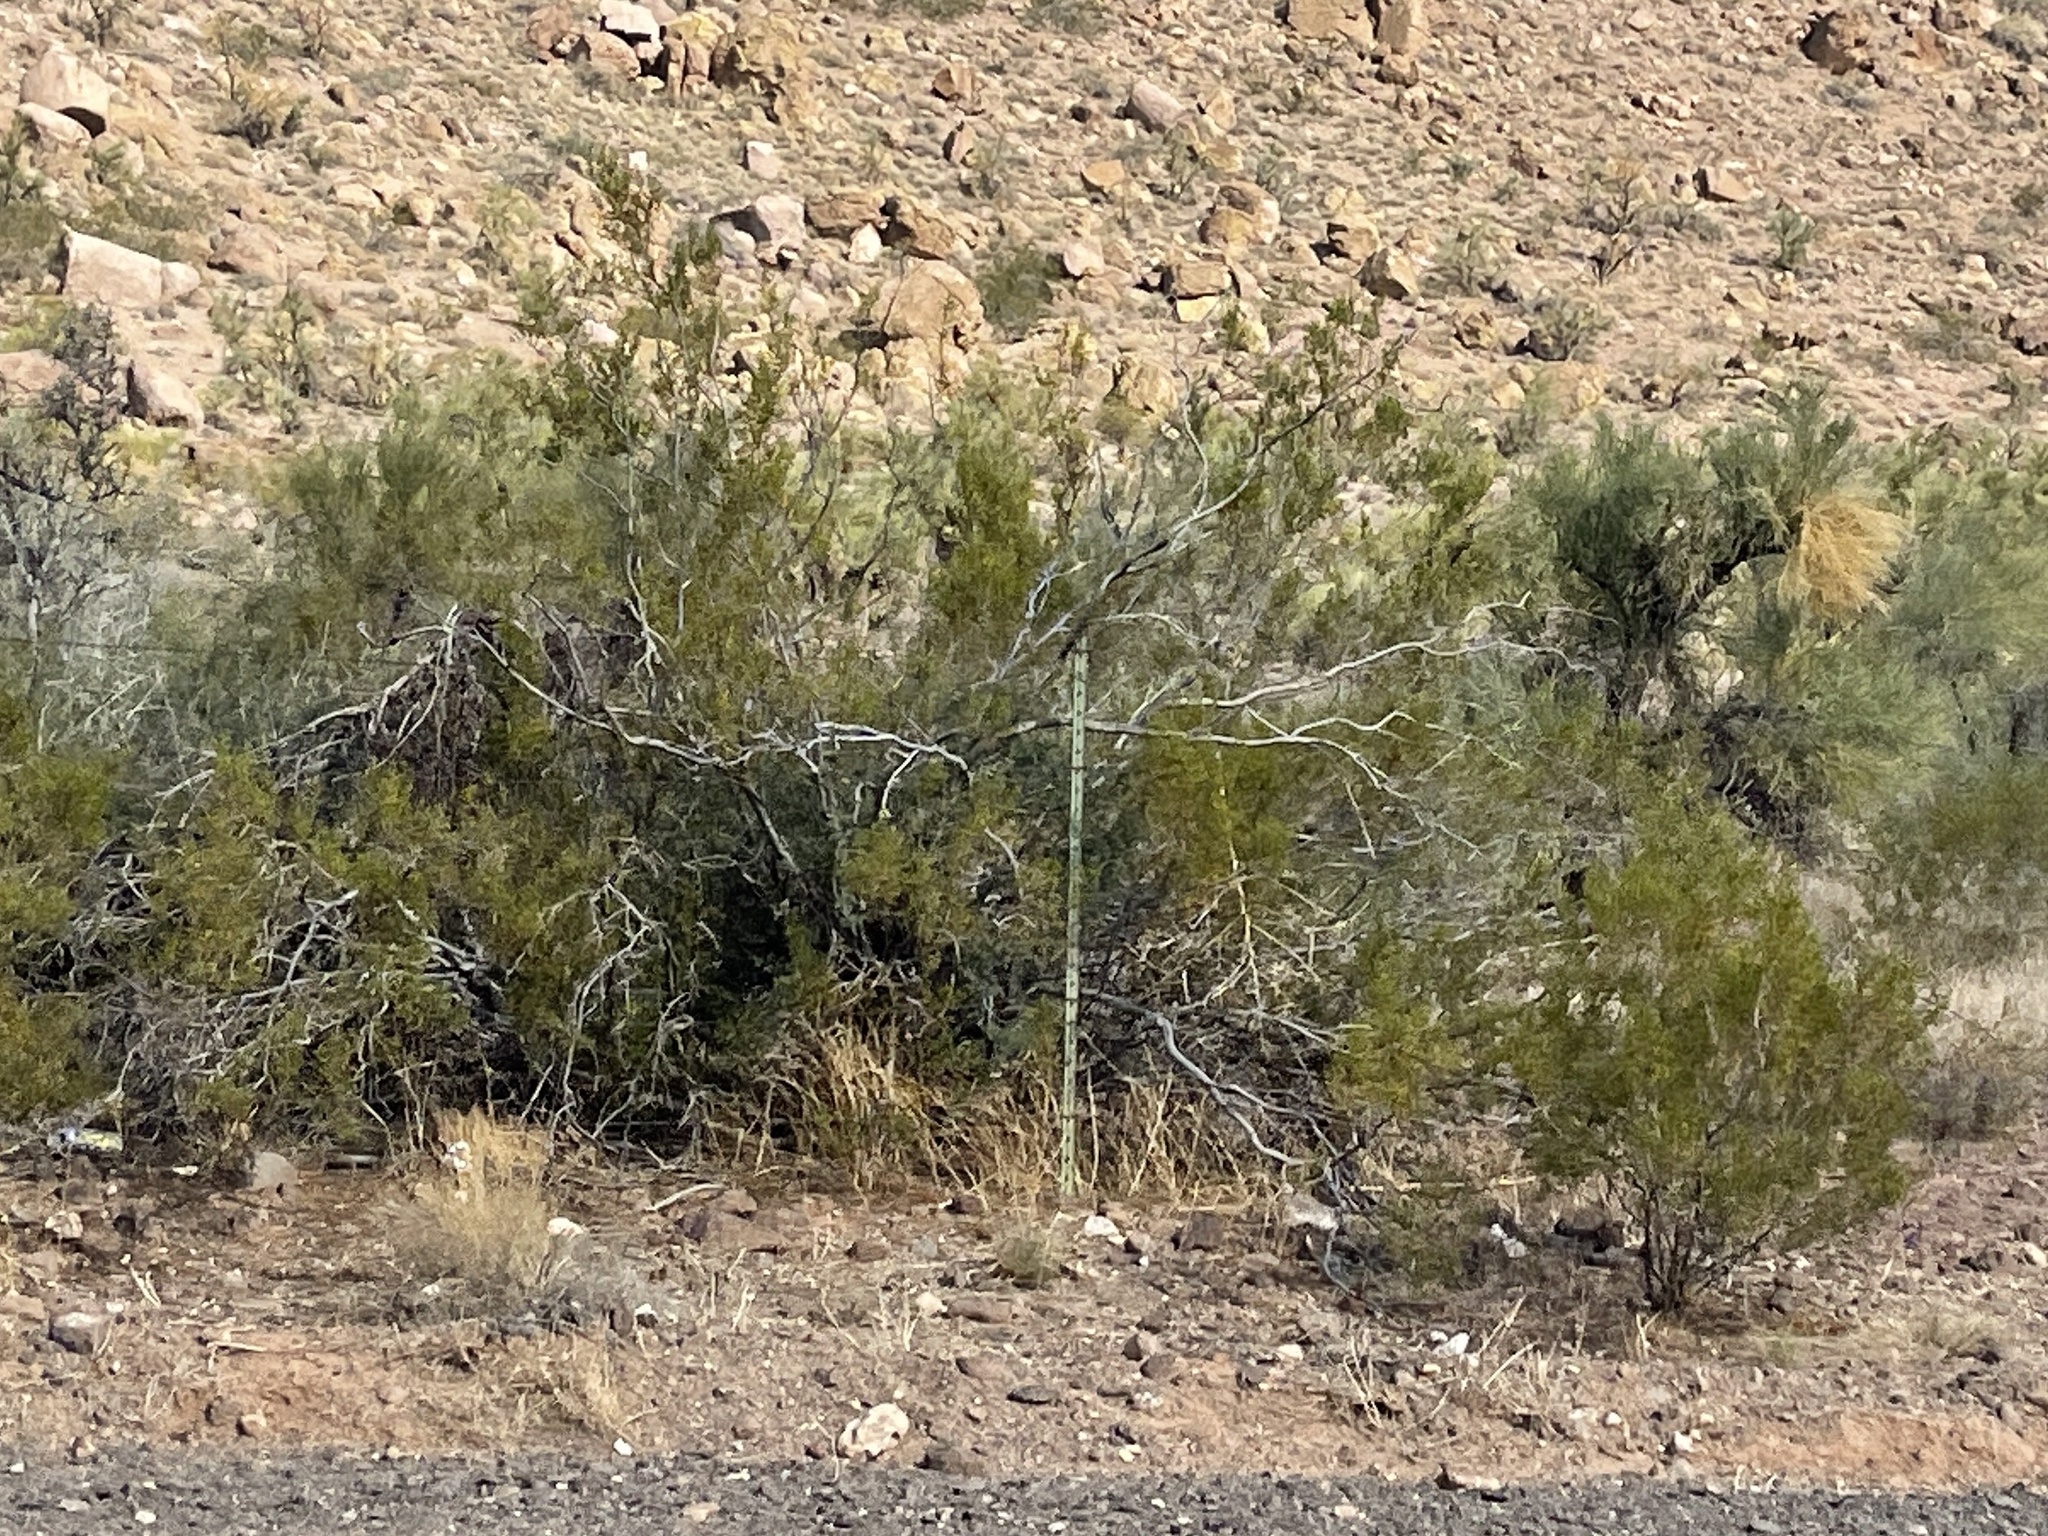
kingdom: Plantae
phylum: Tracheophyta
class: Magnoliopsida
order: Zygophyllales
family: Zygophyllaceae
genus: Larrea
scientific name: Larrea tridentata
